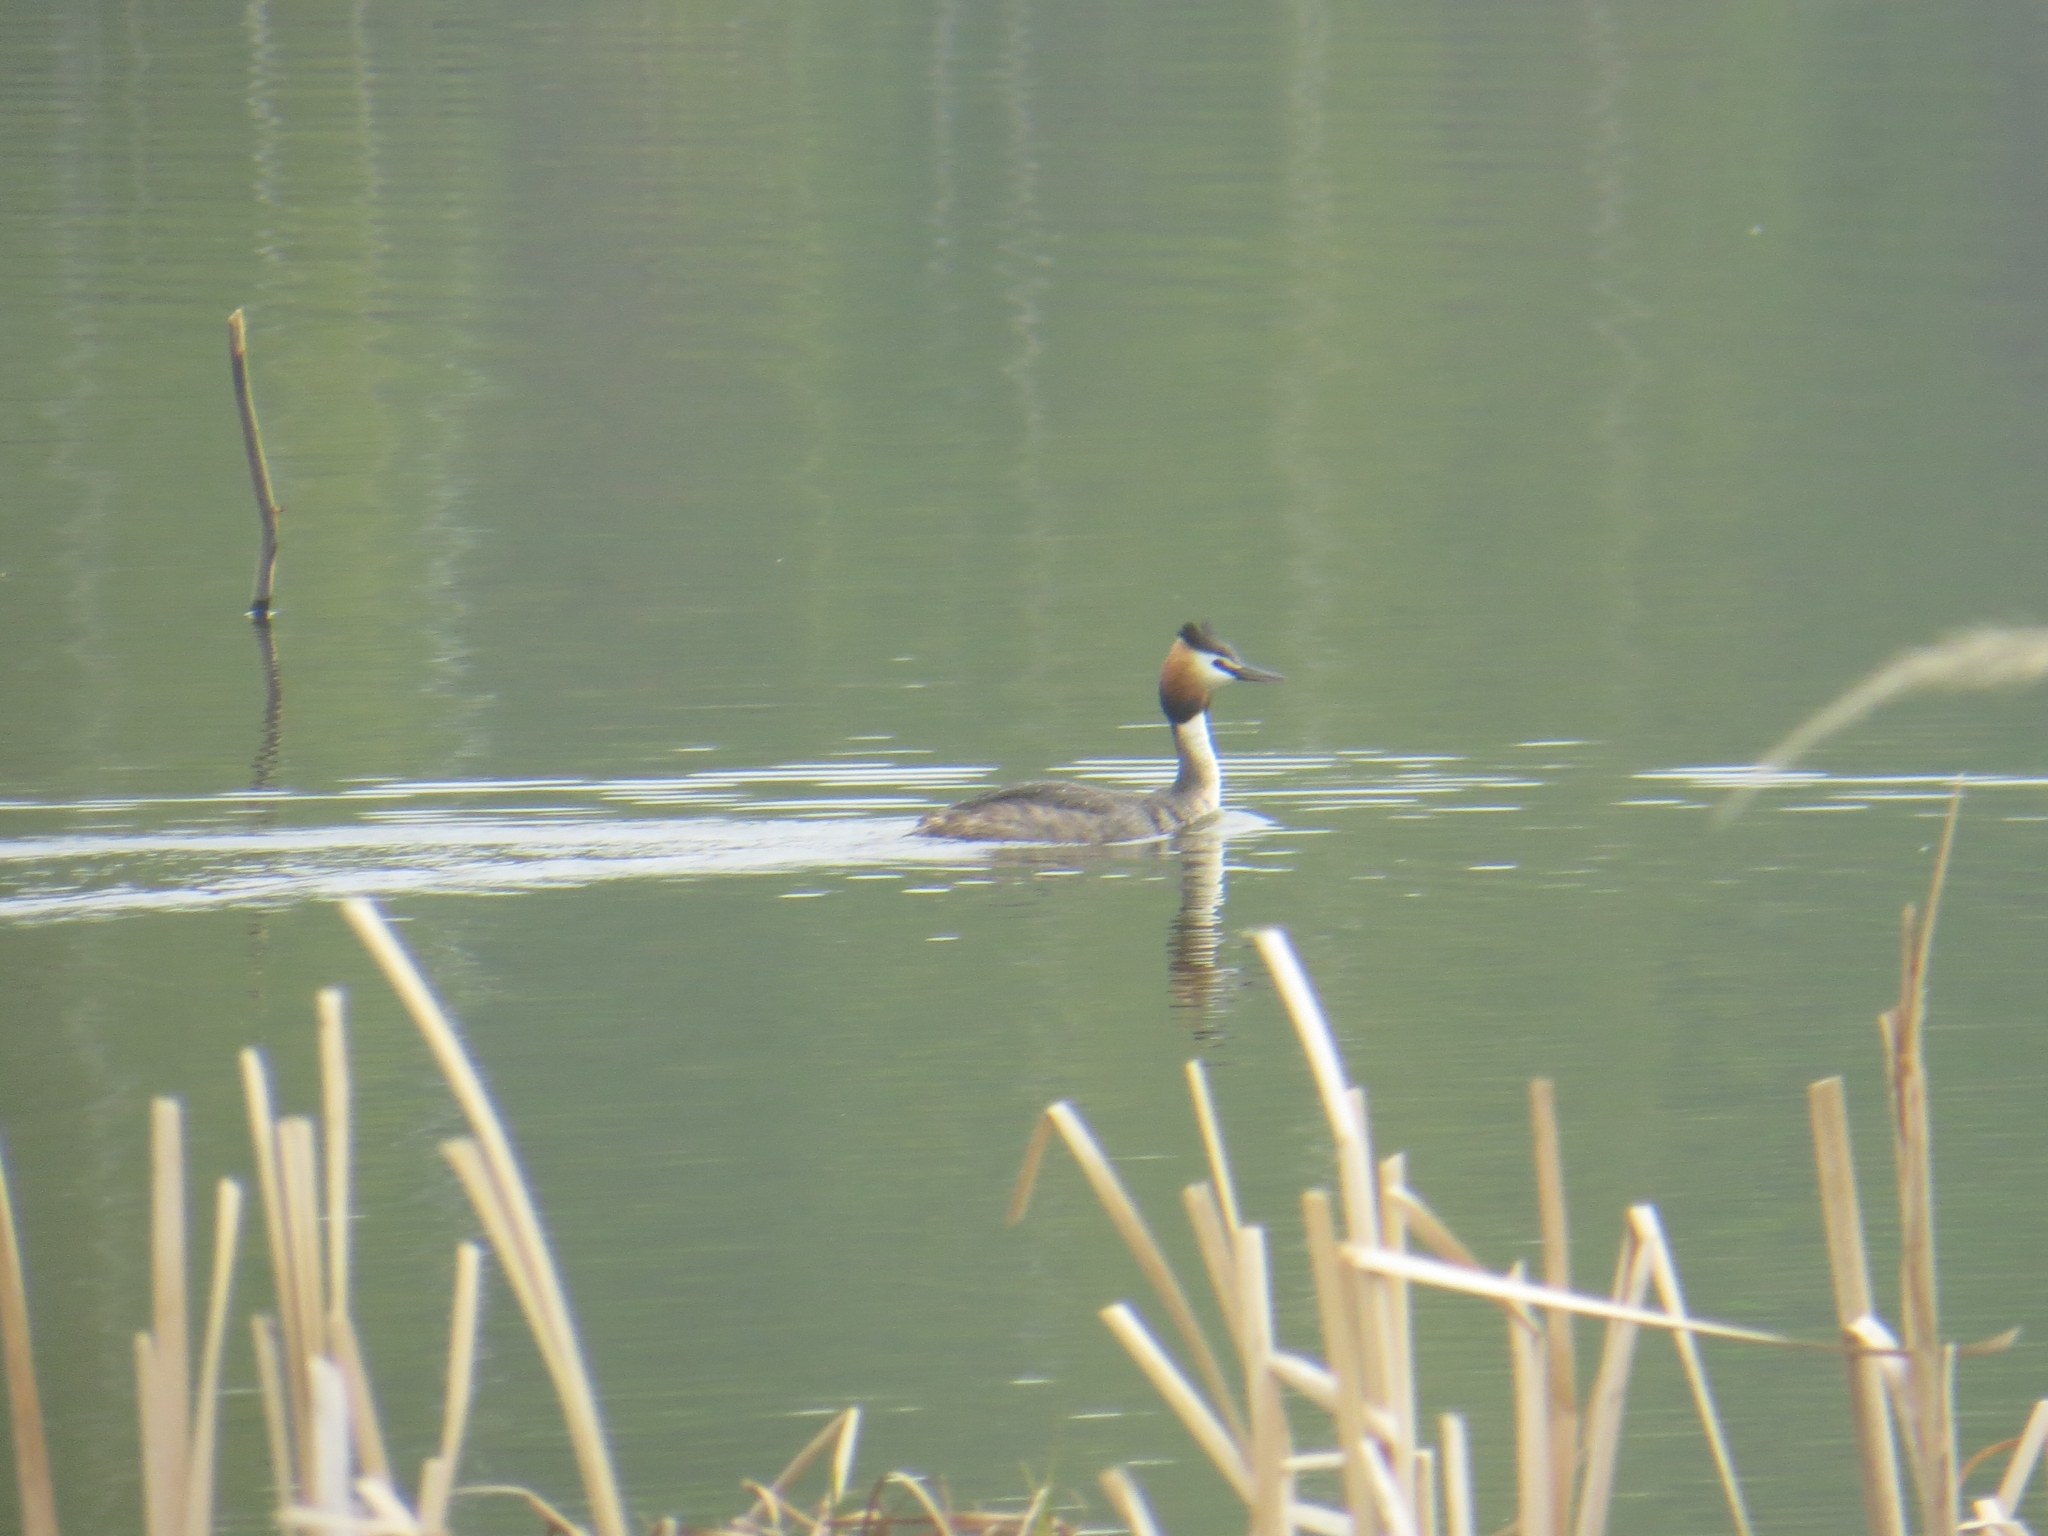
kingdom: Animalia
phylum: Chordata
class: Aves
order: Podicipediformes
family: Podicipedidae
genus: Podiceps
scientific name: Podiceps cristatus
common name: Great crested grebe
